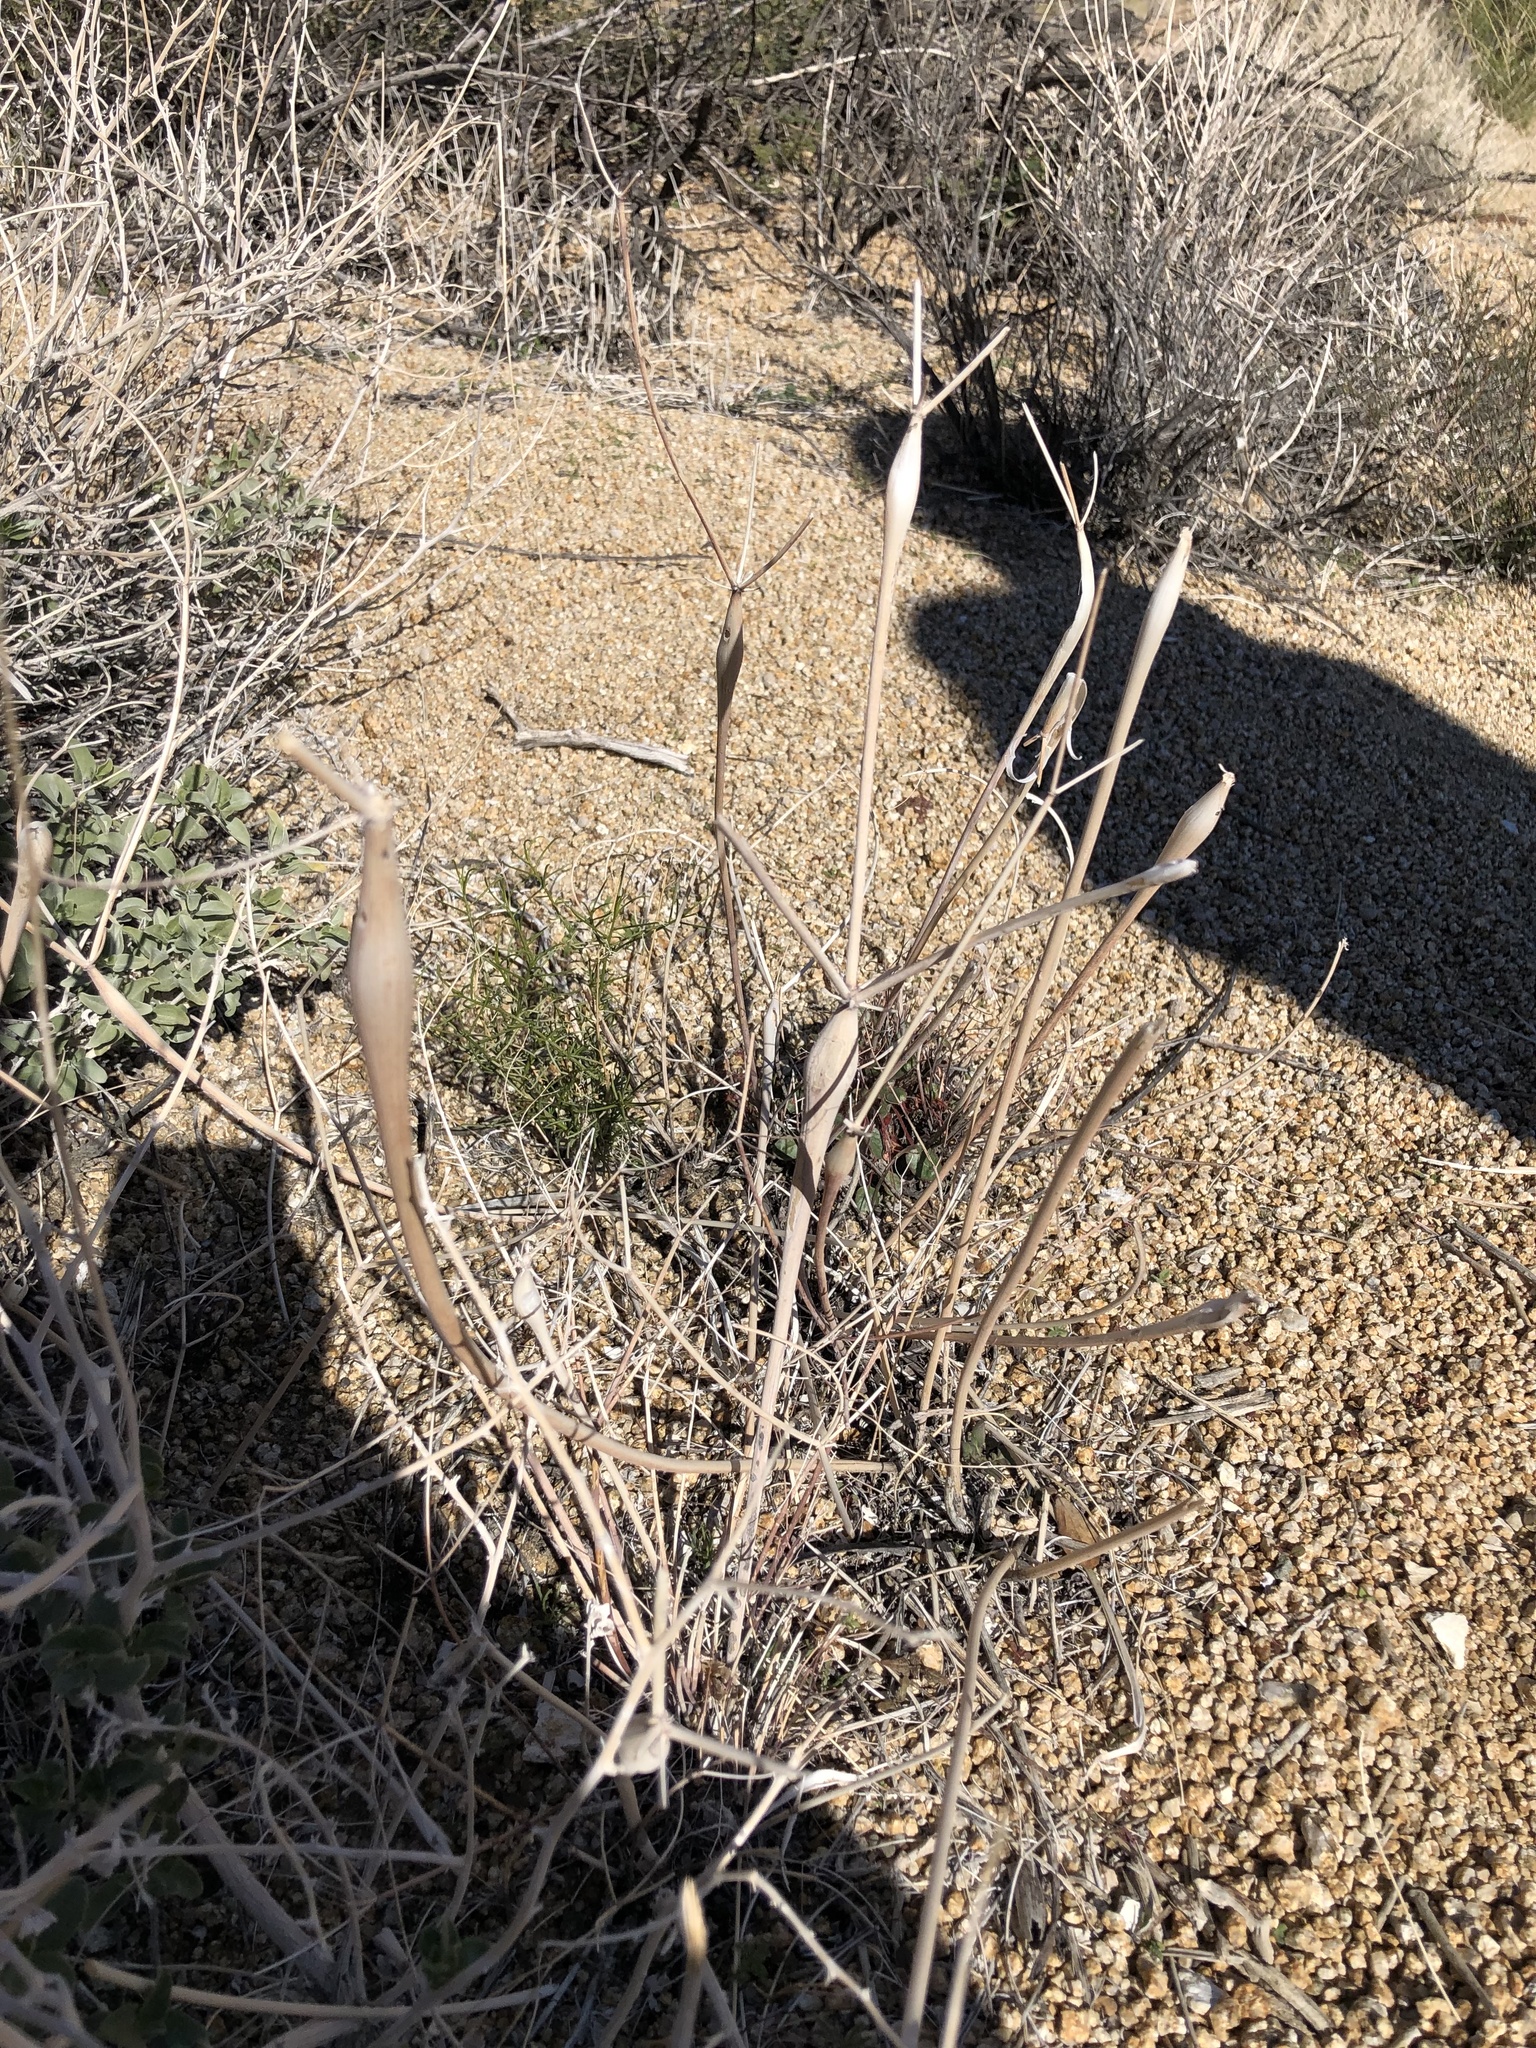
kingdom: Plantae
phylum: Tracheophyta
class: Magnoliopsida
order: Caryophyllales
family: Polygonaceae
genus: Eriogonum
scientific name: Eriogonum inflatum
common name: Desert trumpet
